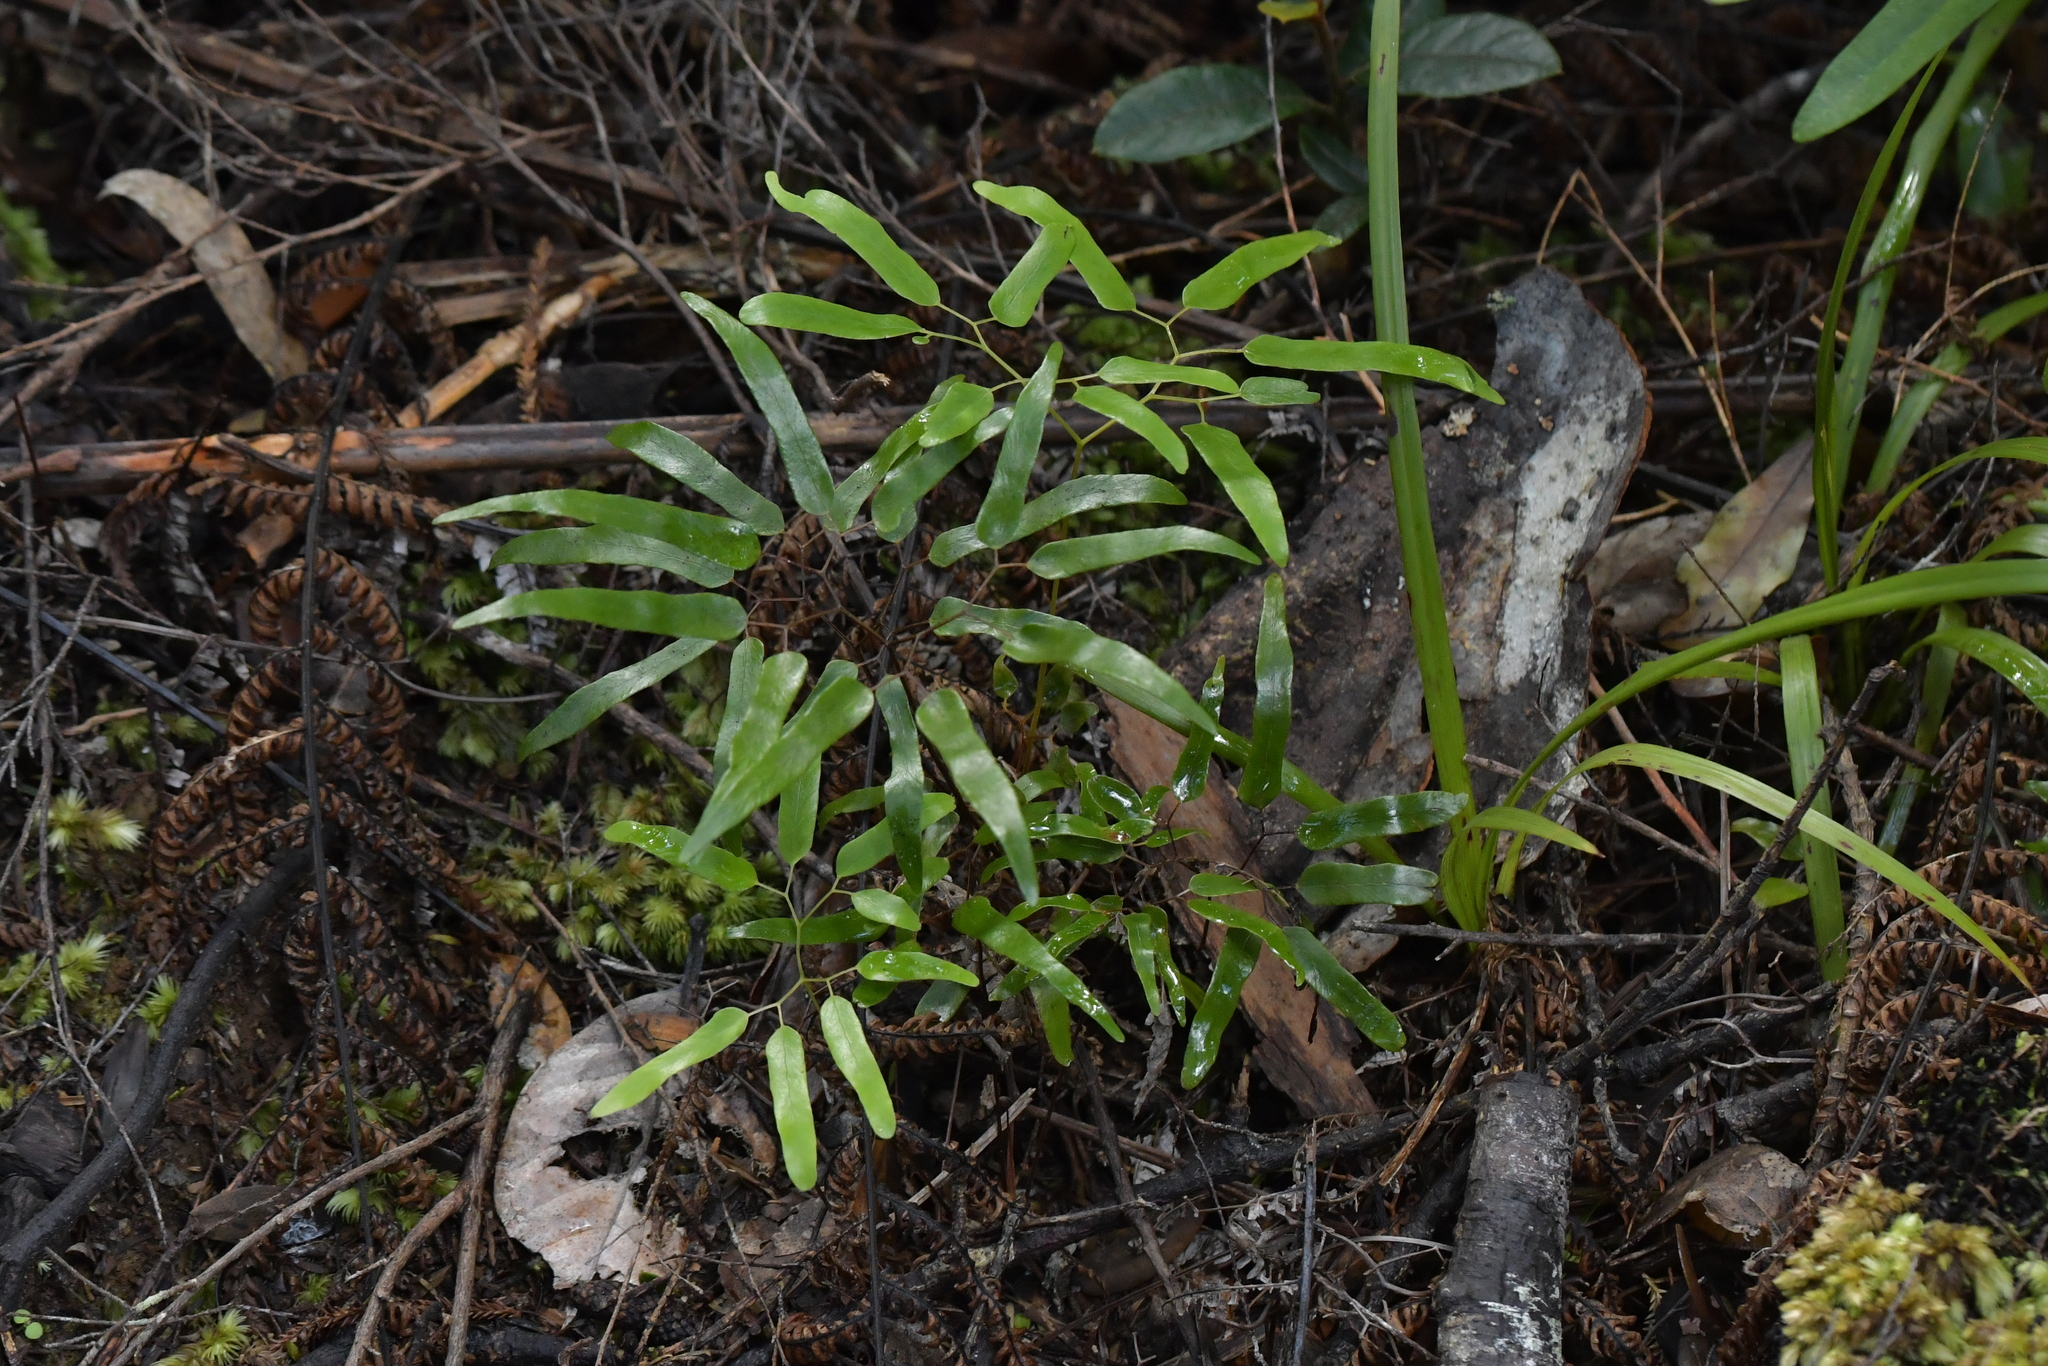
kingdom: Plantae
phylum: Tracheophyta
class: Polypodiopsida
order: Schizaeales
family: Lygodiaceae
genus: Lygodium
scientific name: Lygodium articulatum
